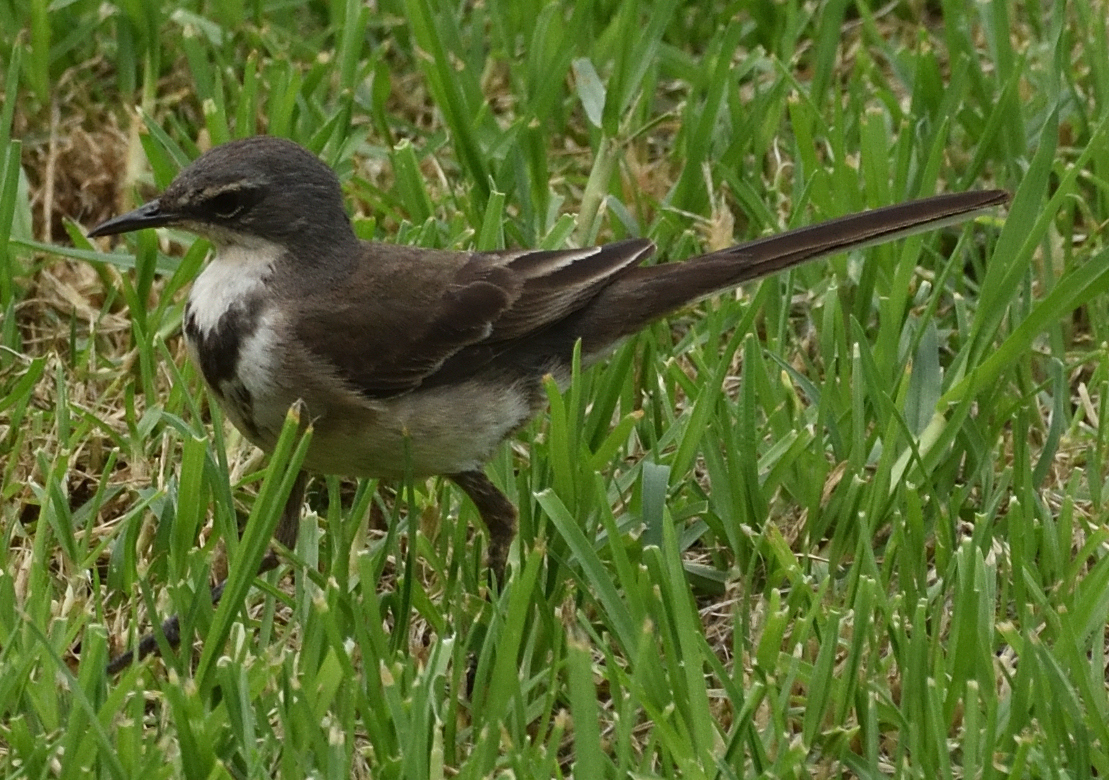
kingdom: Animalia
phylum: Chordata
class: Aves
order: Passeriformes
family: Motacillidae
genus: Motacilla
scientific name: Motacilla capensis
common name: Cape wagtail
